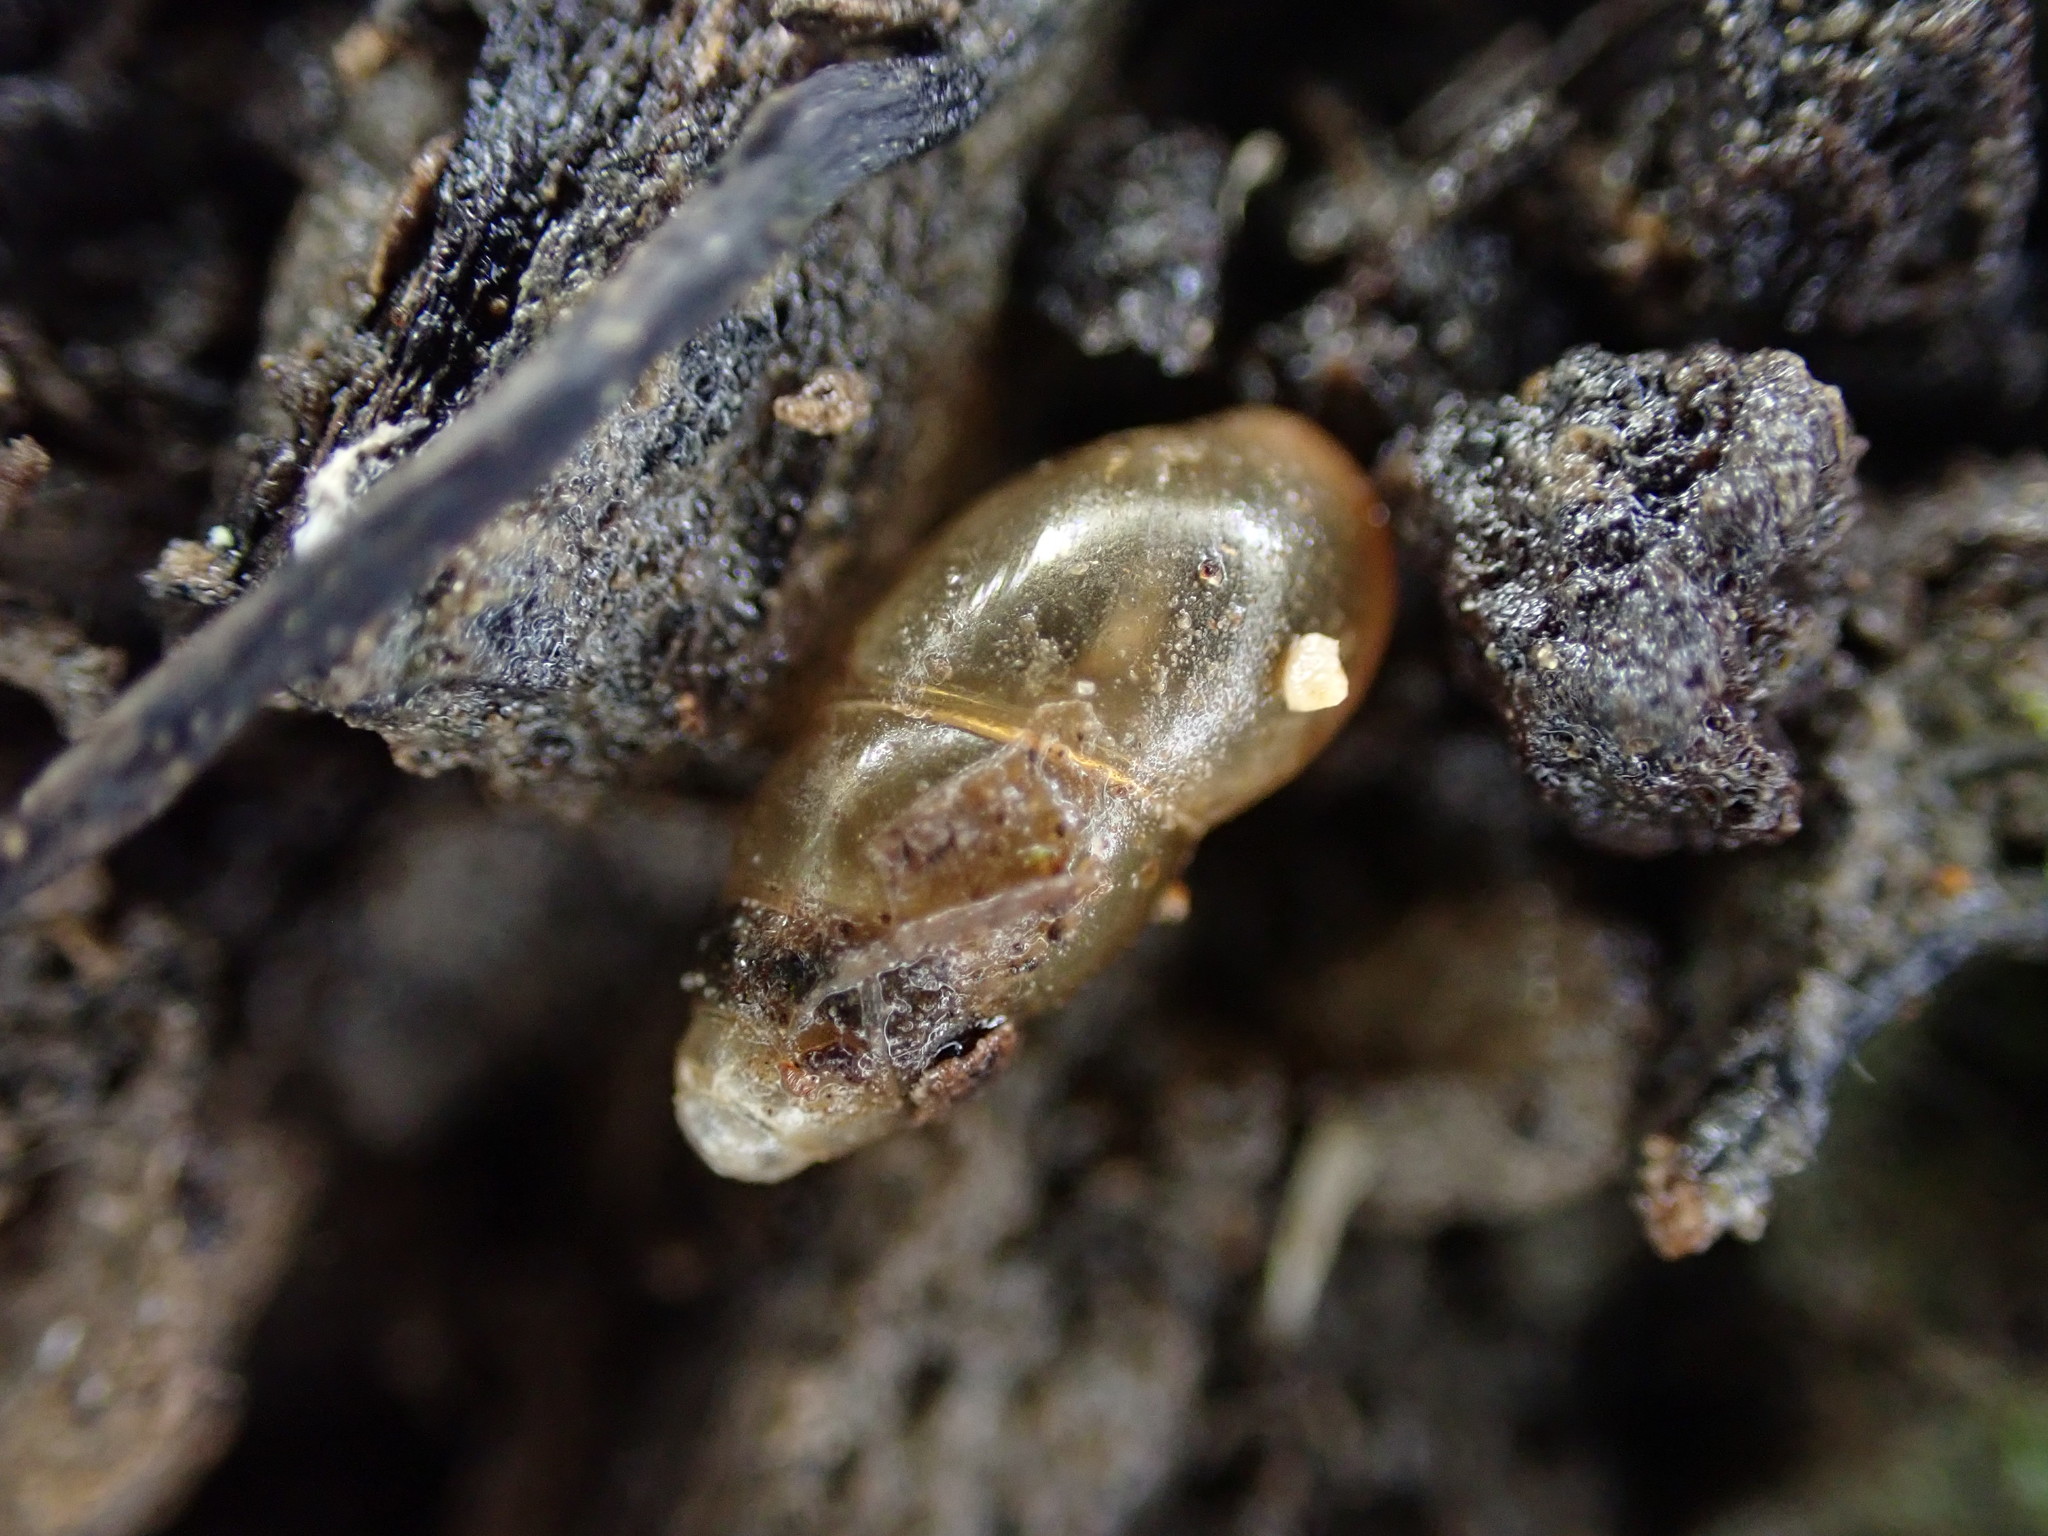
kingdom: Animalia
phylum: Mollusca
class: Gastropoda
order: Stylommatophora
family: Cochlicopidae
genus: Cochlicopa
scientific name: Cochlicopa lubrica
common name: Glossy pillar snail
